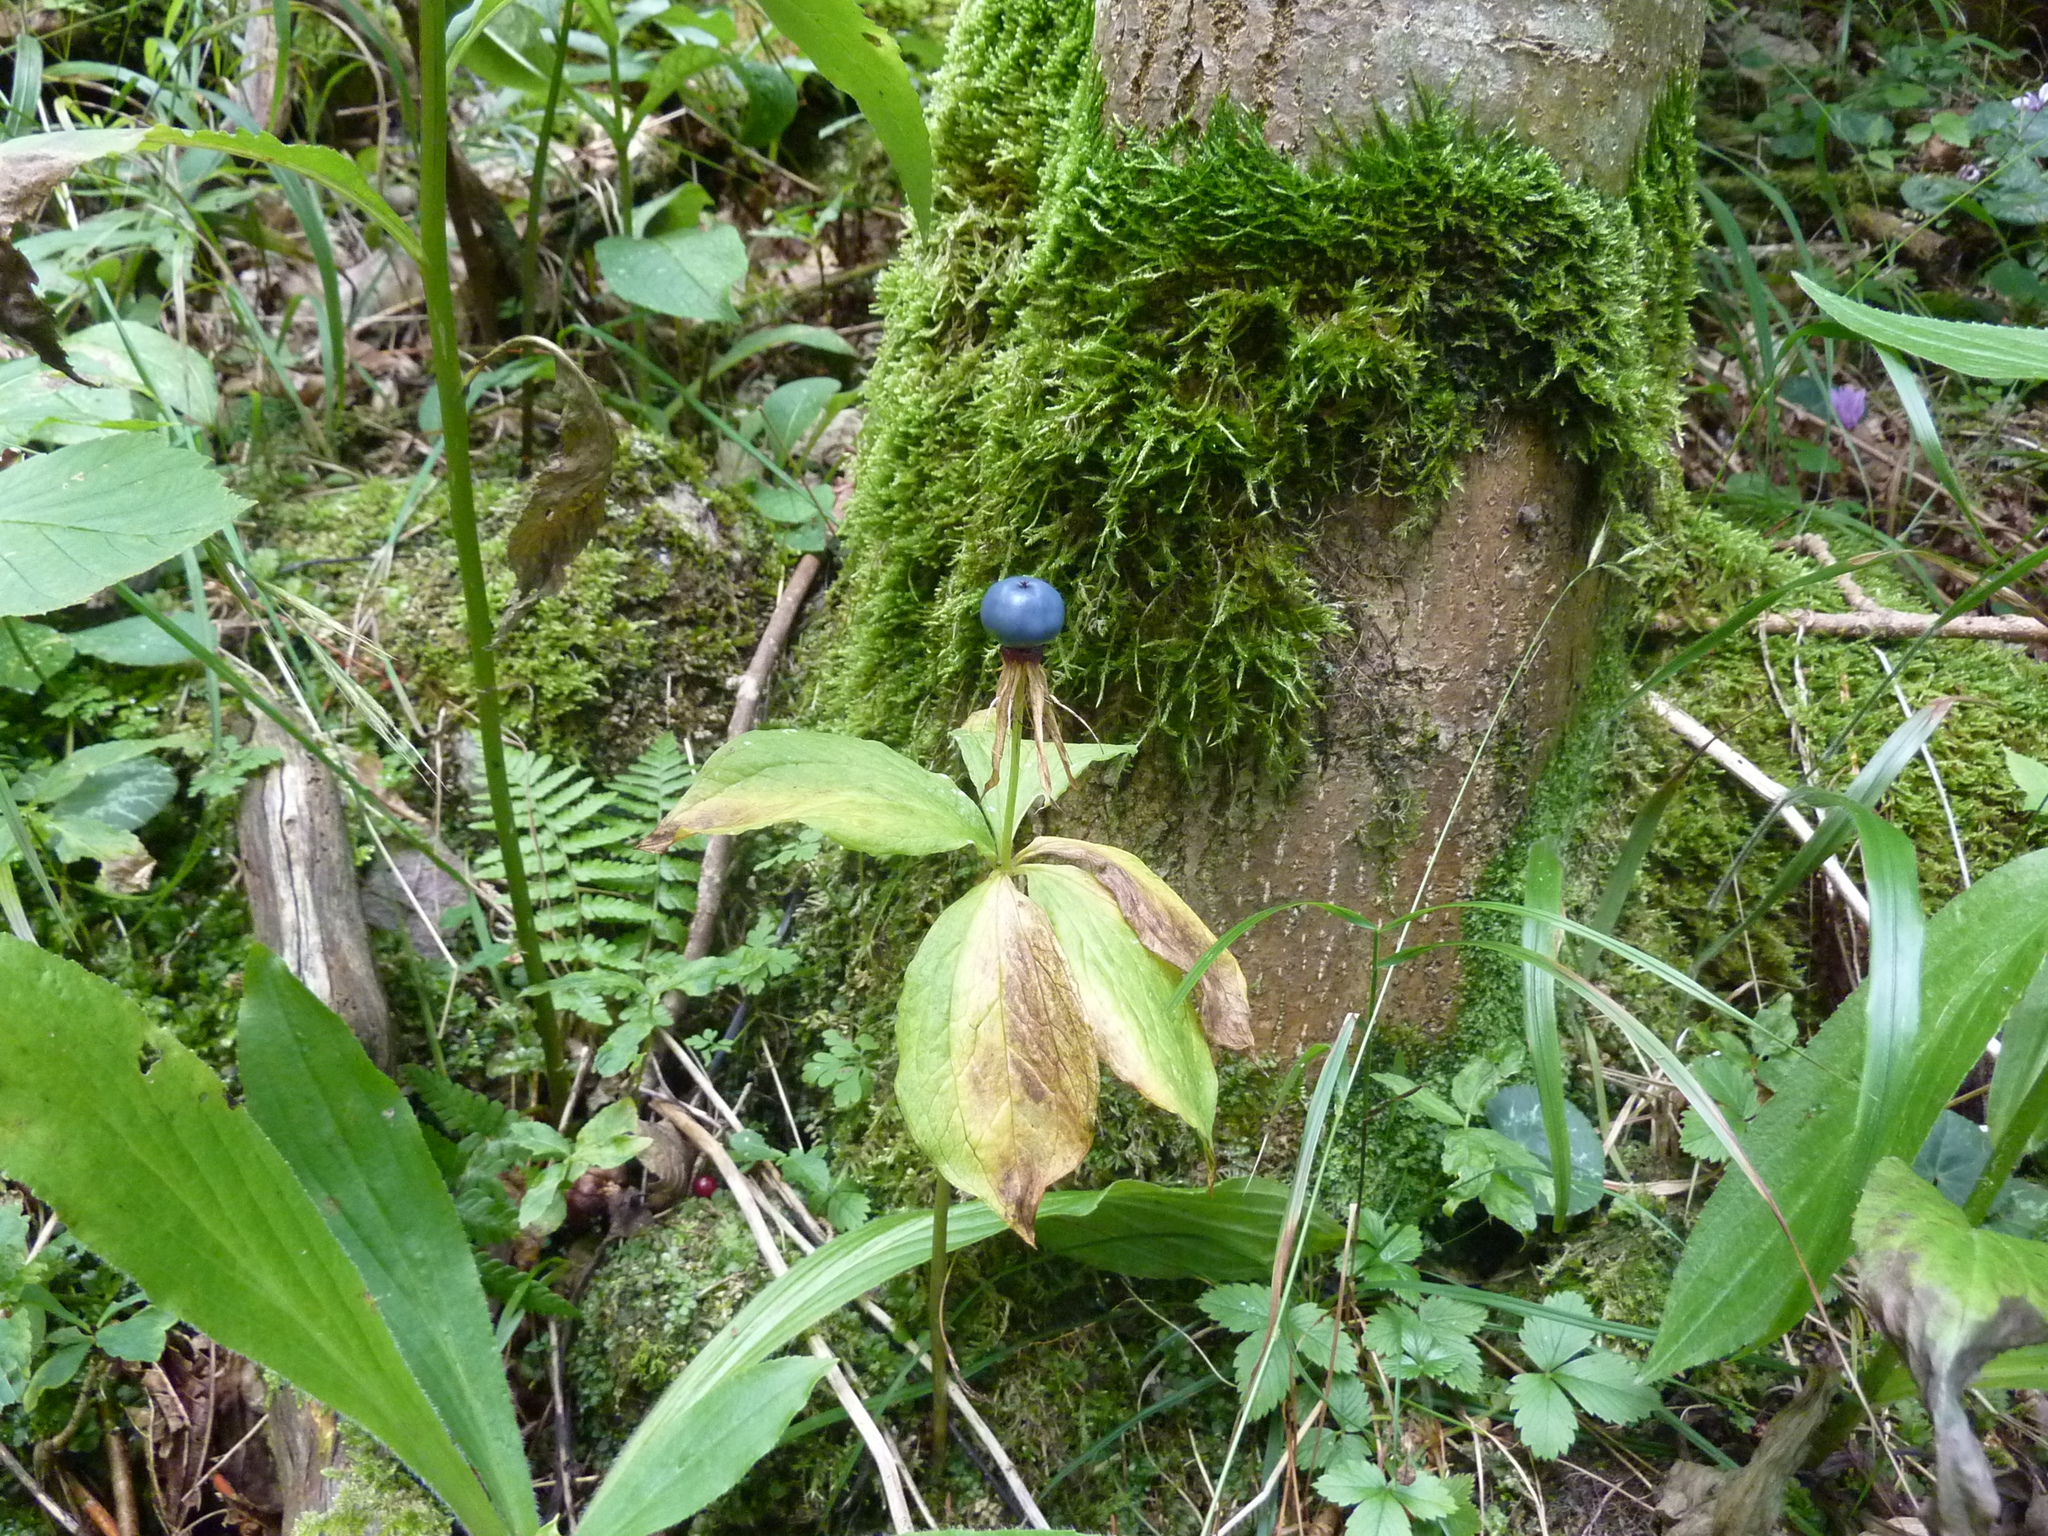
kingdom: Plantae
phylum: Tracheophyta
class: Liliopsida
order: Liliales
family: Melanthiaceae
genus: Paris
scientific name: Paris quadrifolia
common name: Herb-paris
